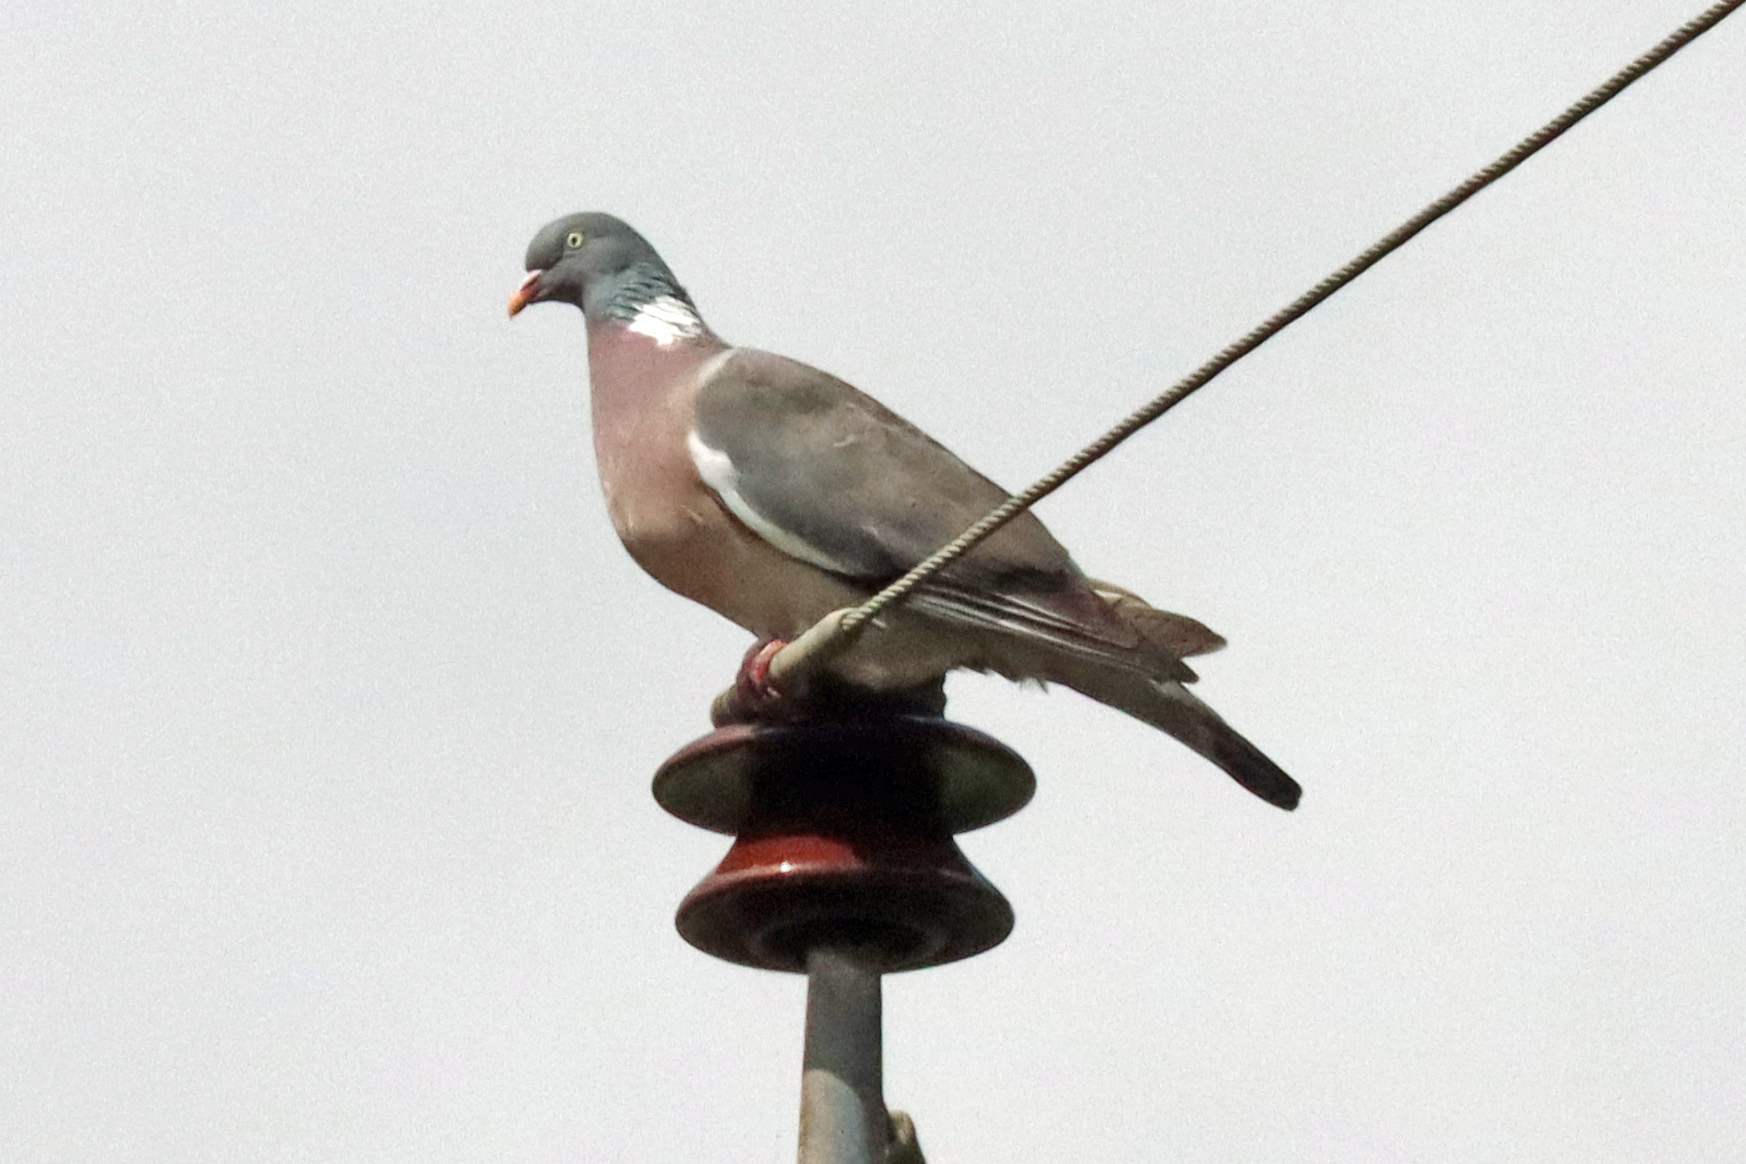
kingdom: Animalia
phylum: Chordata
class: Aves
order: Columbiformes
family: Columbidae
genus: Columba
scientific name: Columba palumbus
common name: Common wood pigeon
